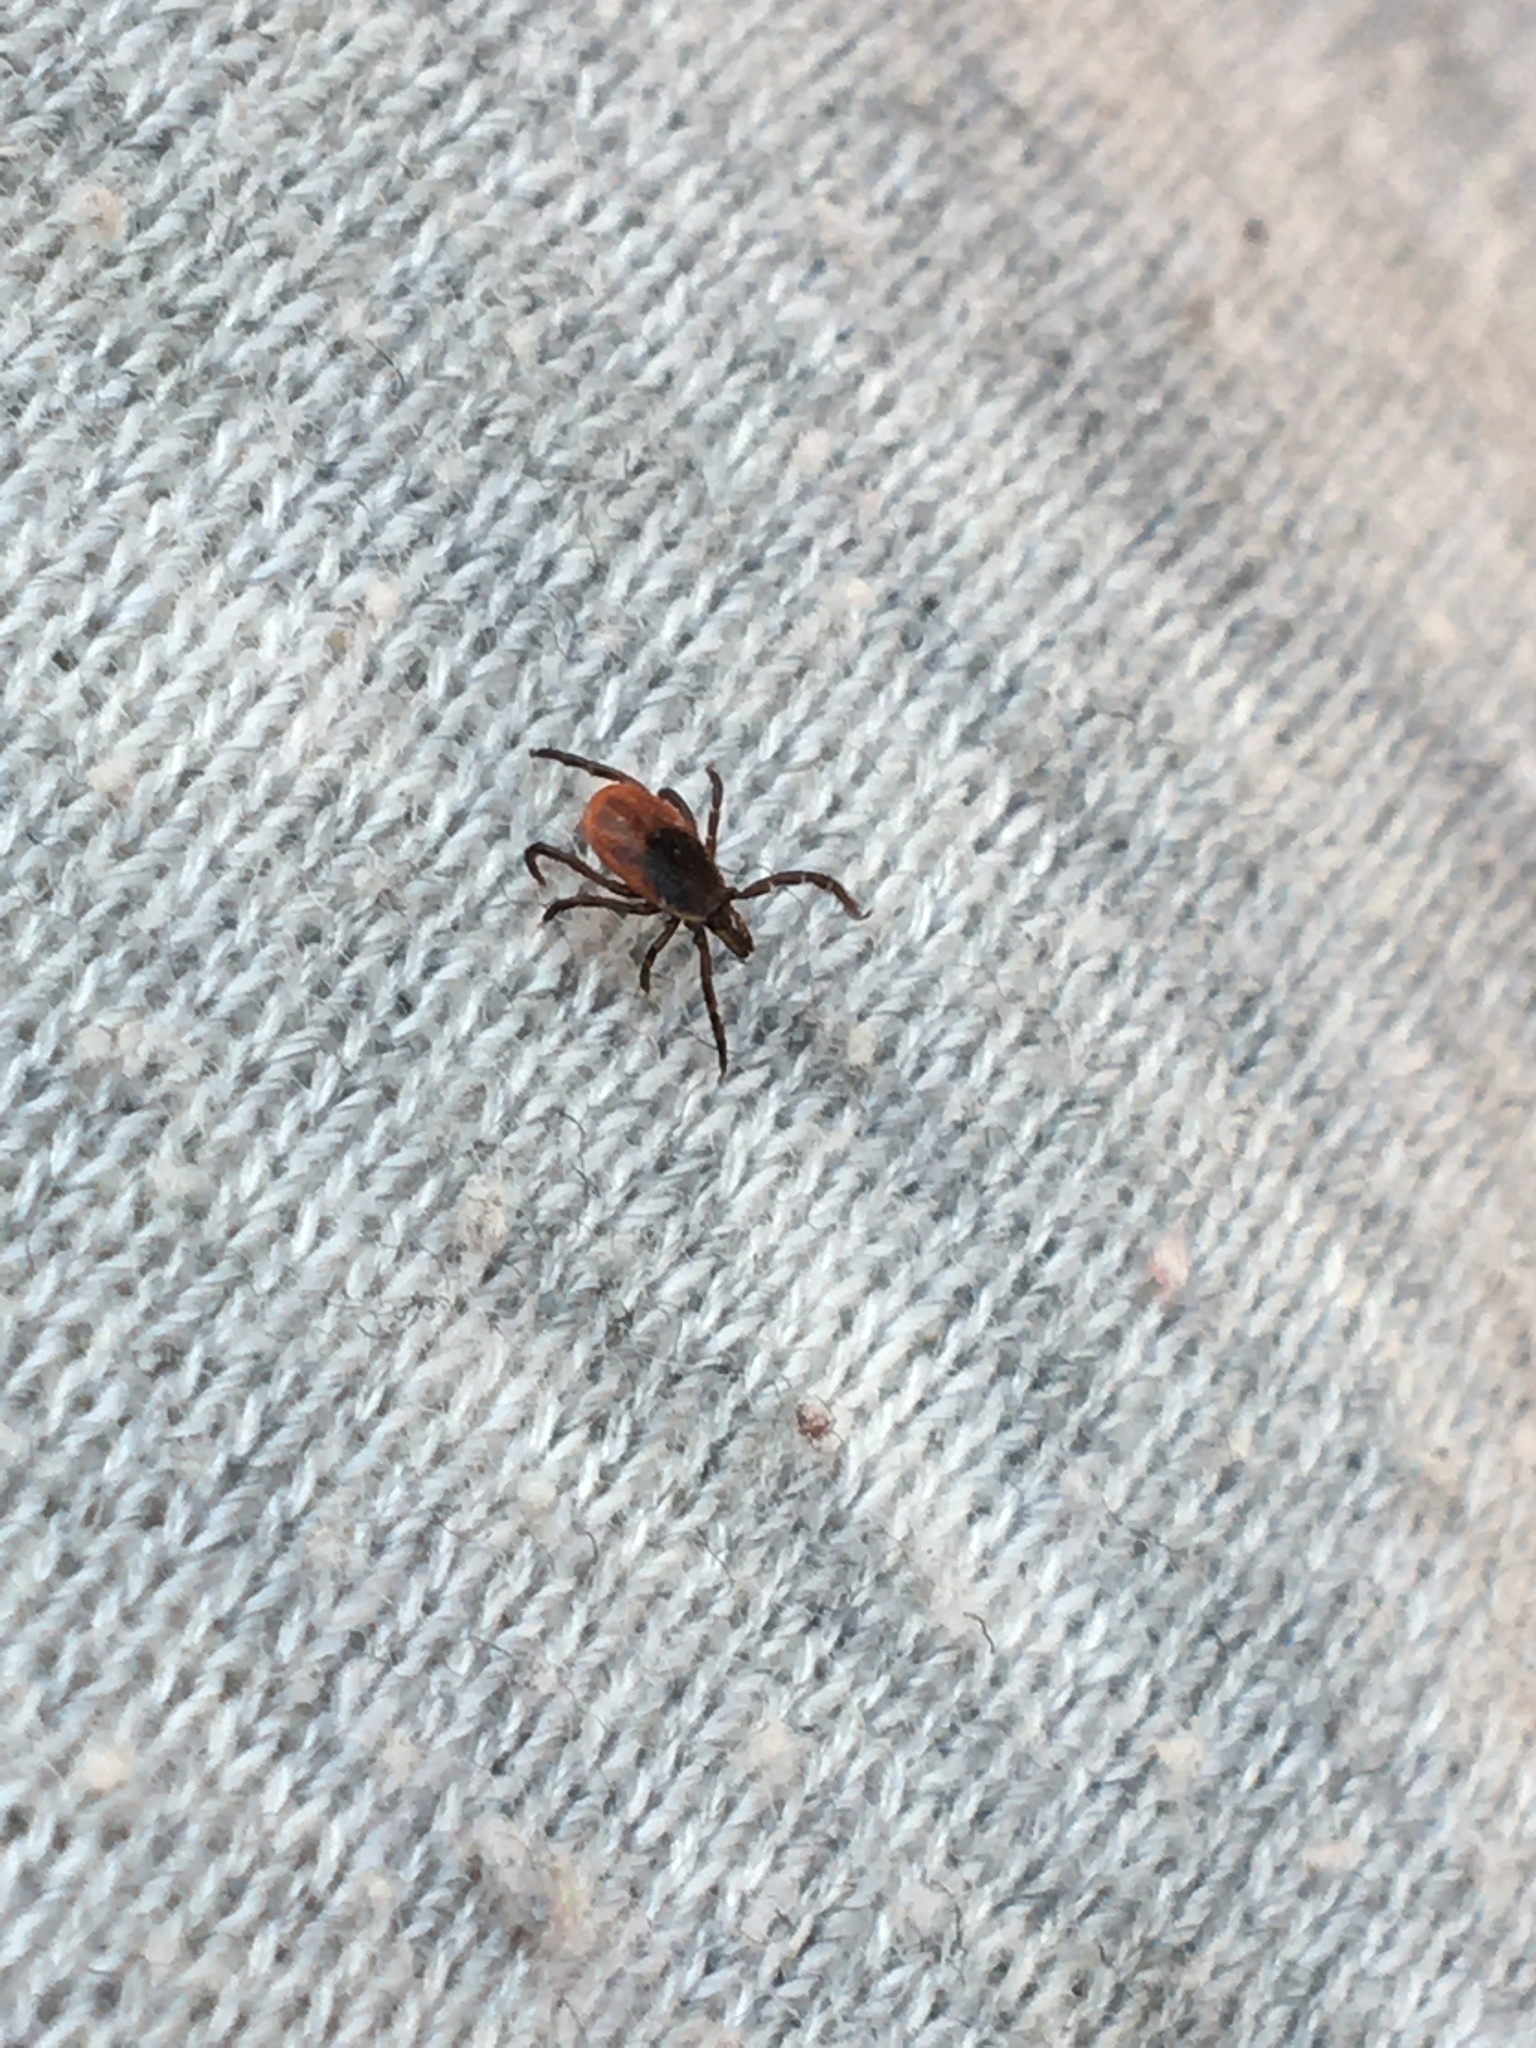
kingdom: Animalia
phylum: Arthropoda
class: Arachnida
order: Ixodida
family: Ixodidae
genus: Ixodes
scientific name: Ixodes scapularis
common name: Black legged tick
